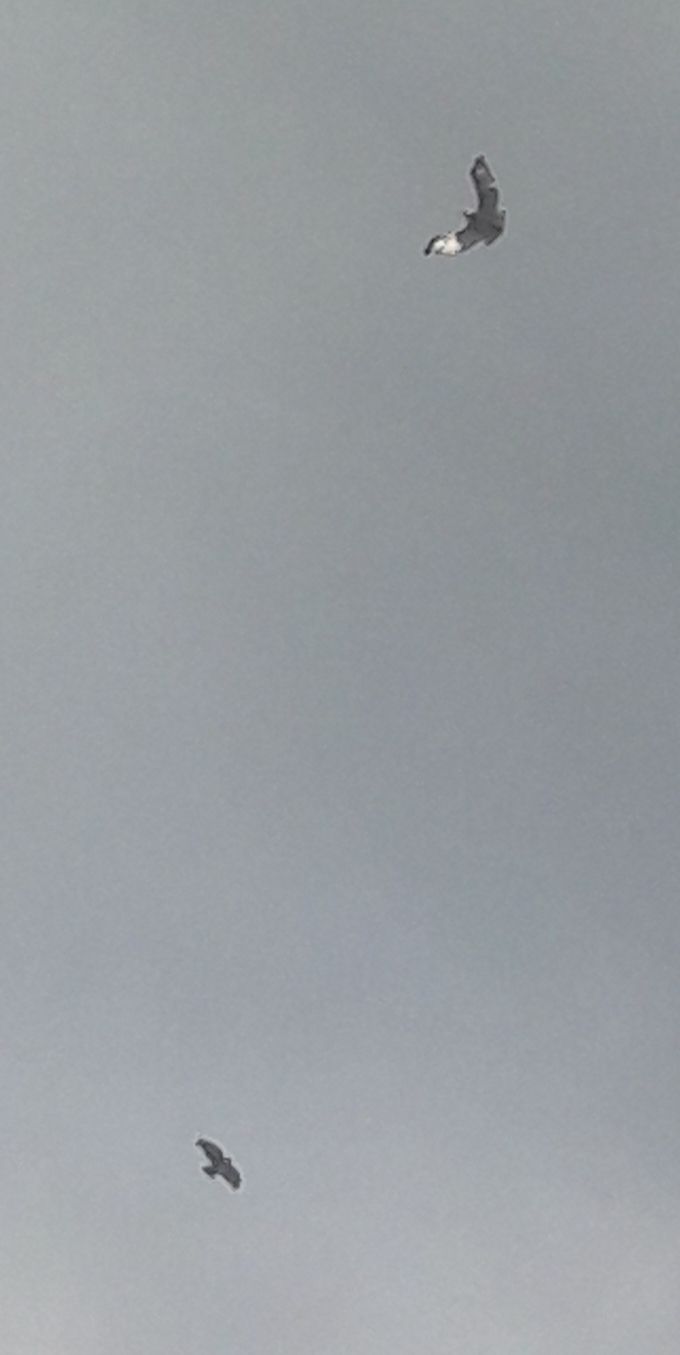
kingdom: Animalia
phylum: Chordata
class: Aves
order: Accipitriformes
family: Accipitridae
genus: Buteo
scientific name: Buteo jamaicensis
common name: Red-tailed hawk
